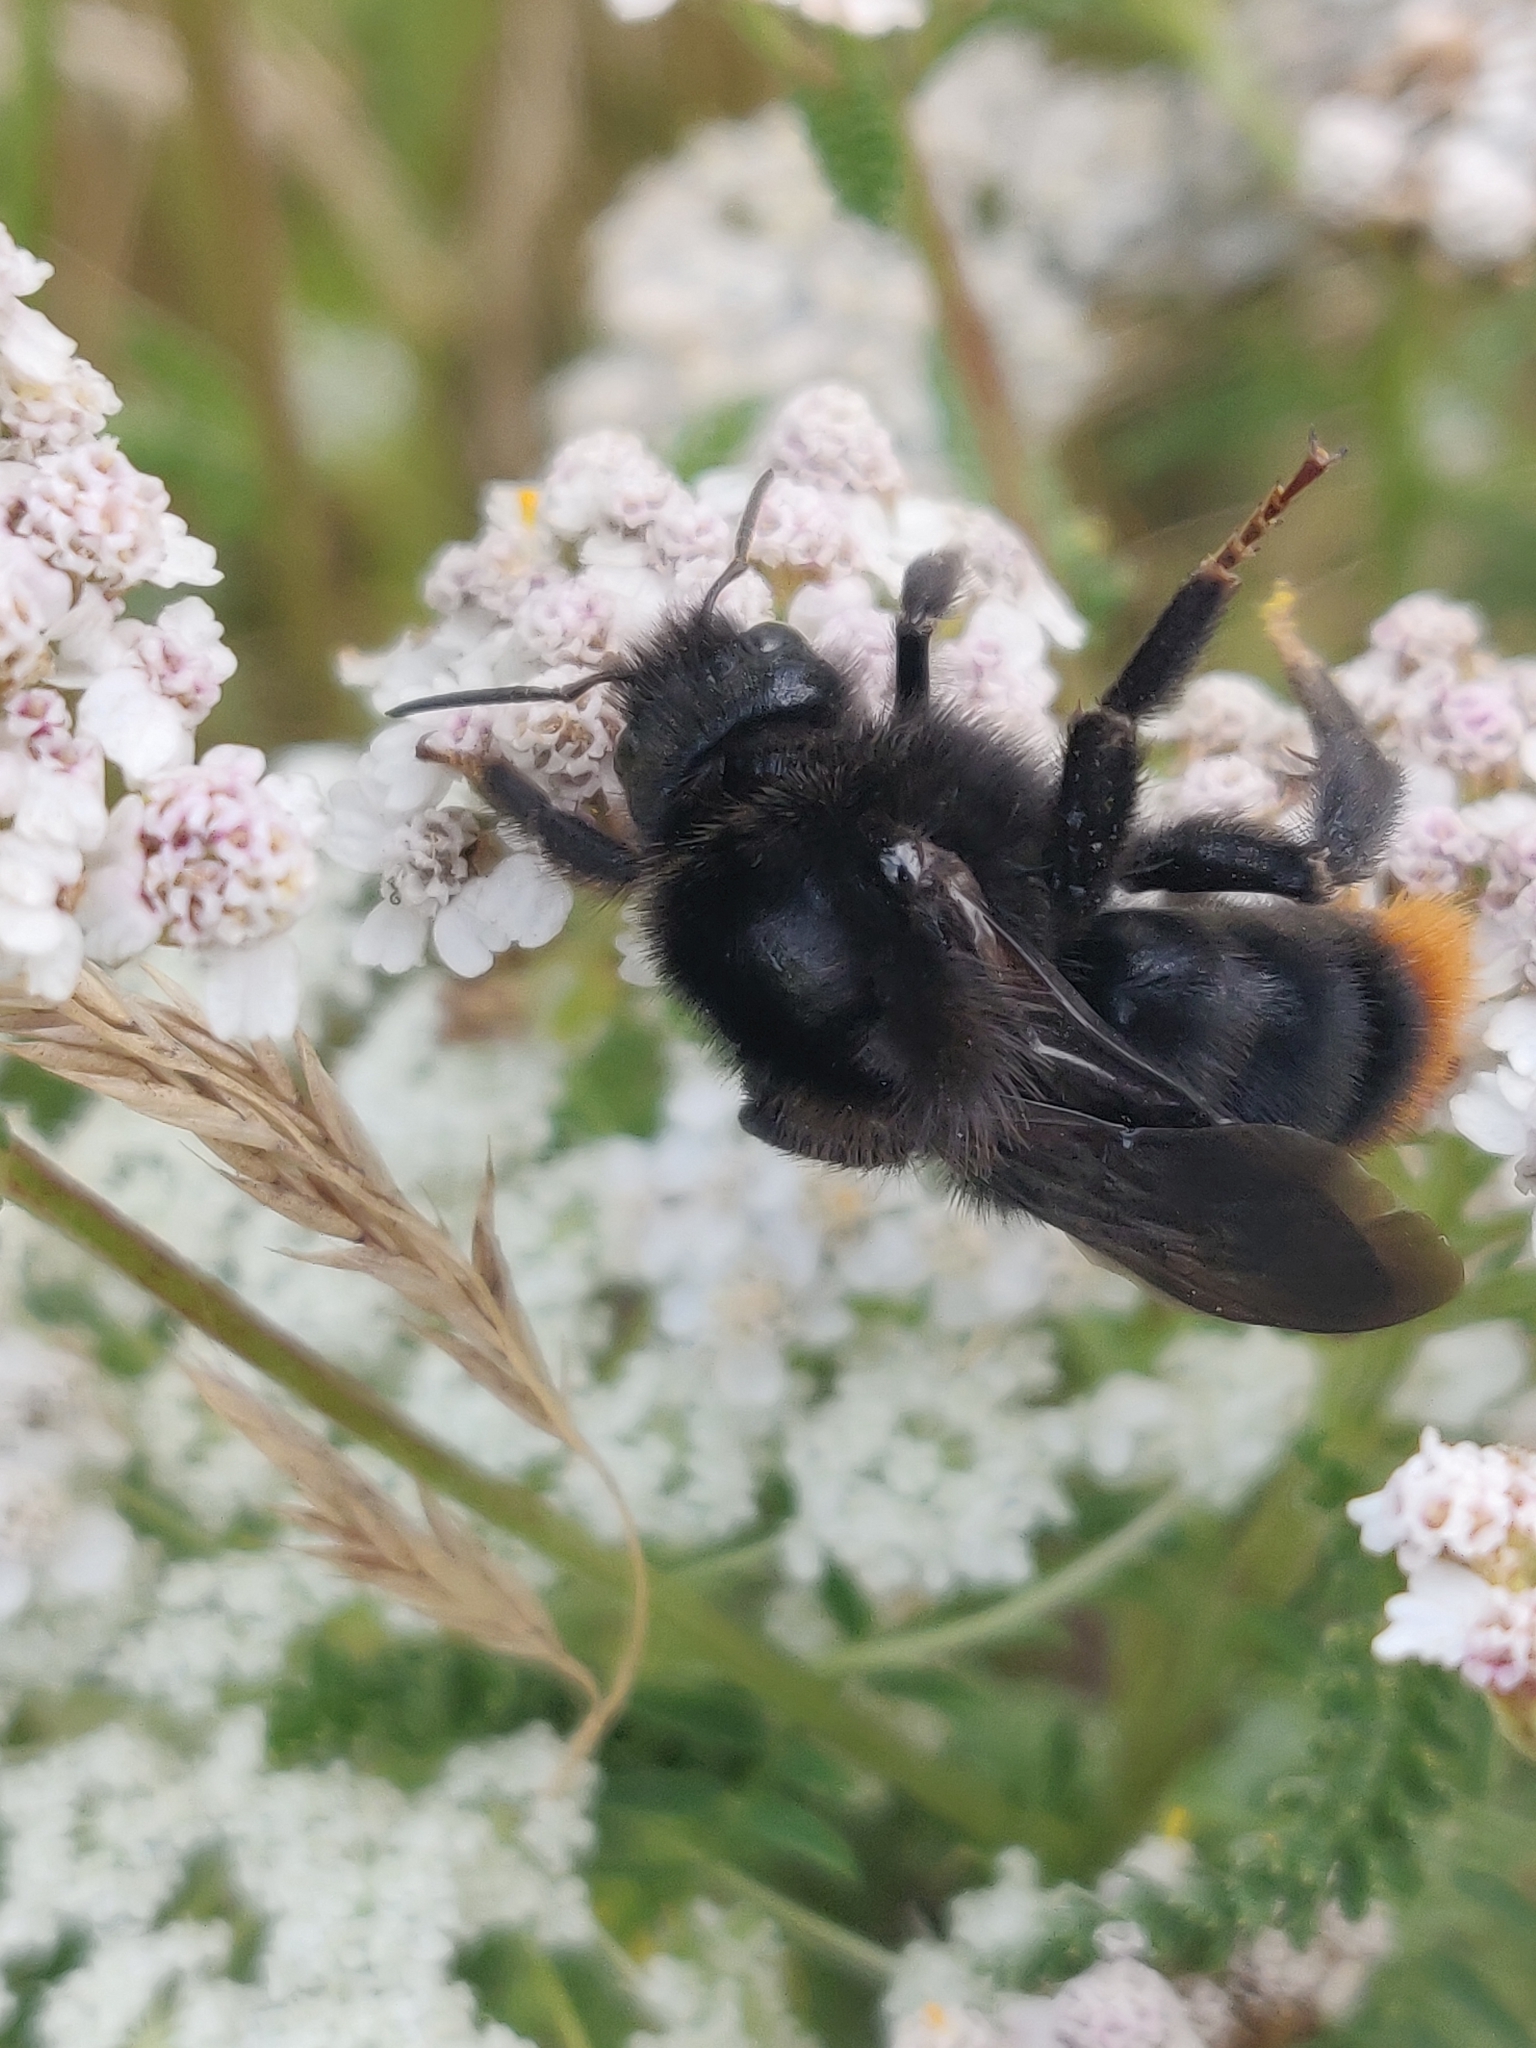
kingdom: Animalia
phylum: Arthropoda
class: Insecta
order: Hymenoptera
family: Apidae
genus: Bombus
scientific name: Bombus rupestris
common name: Hill cuckoo-bee
